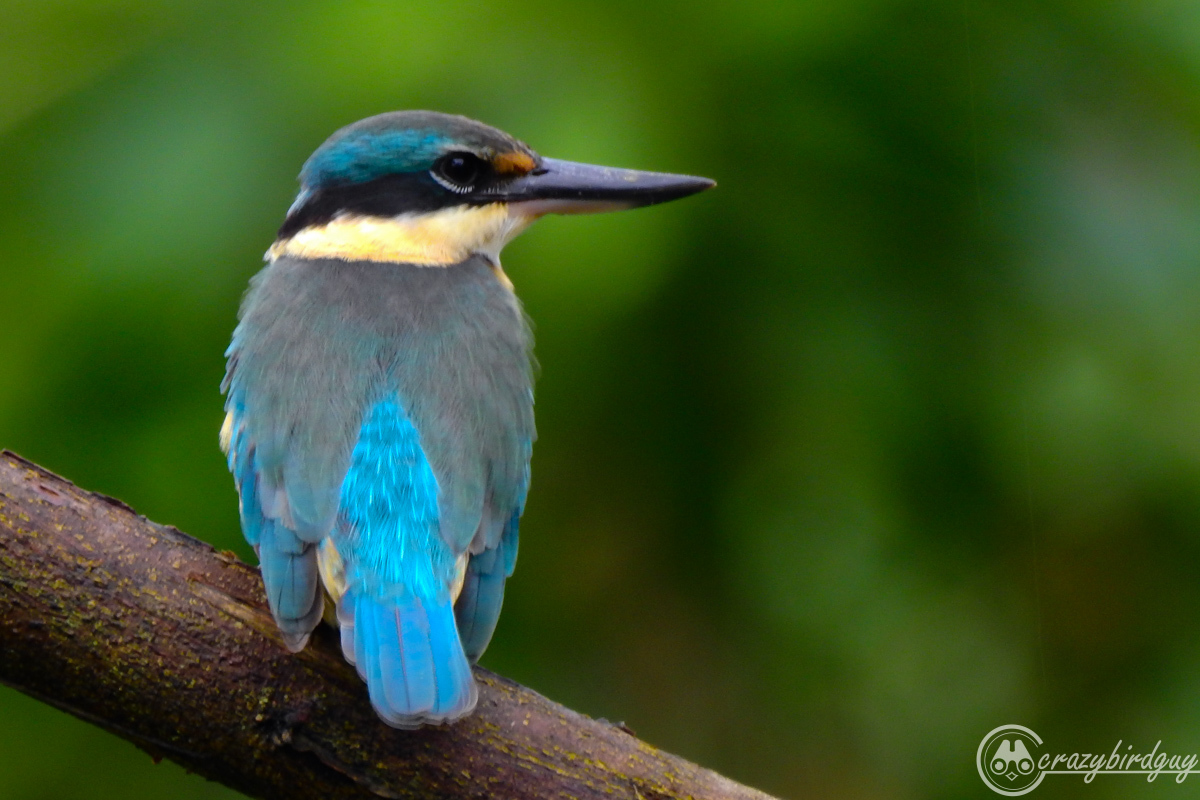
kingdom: Animalia
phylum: Chordata
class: Aves
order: Coraciiformes
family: Alcedinidae
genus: Todiramphus
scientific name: Todiramphus sanctus
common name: Sacred kingfisher
